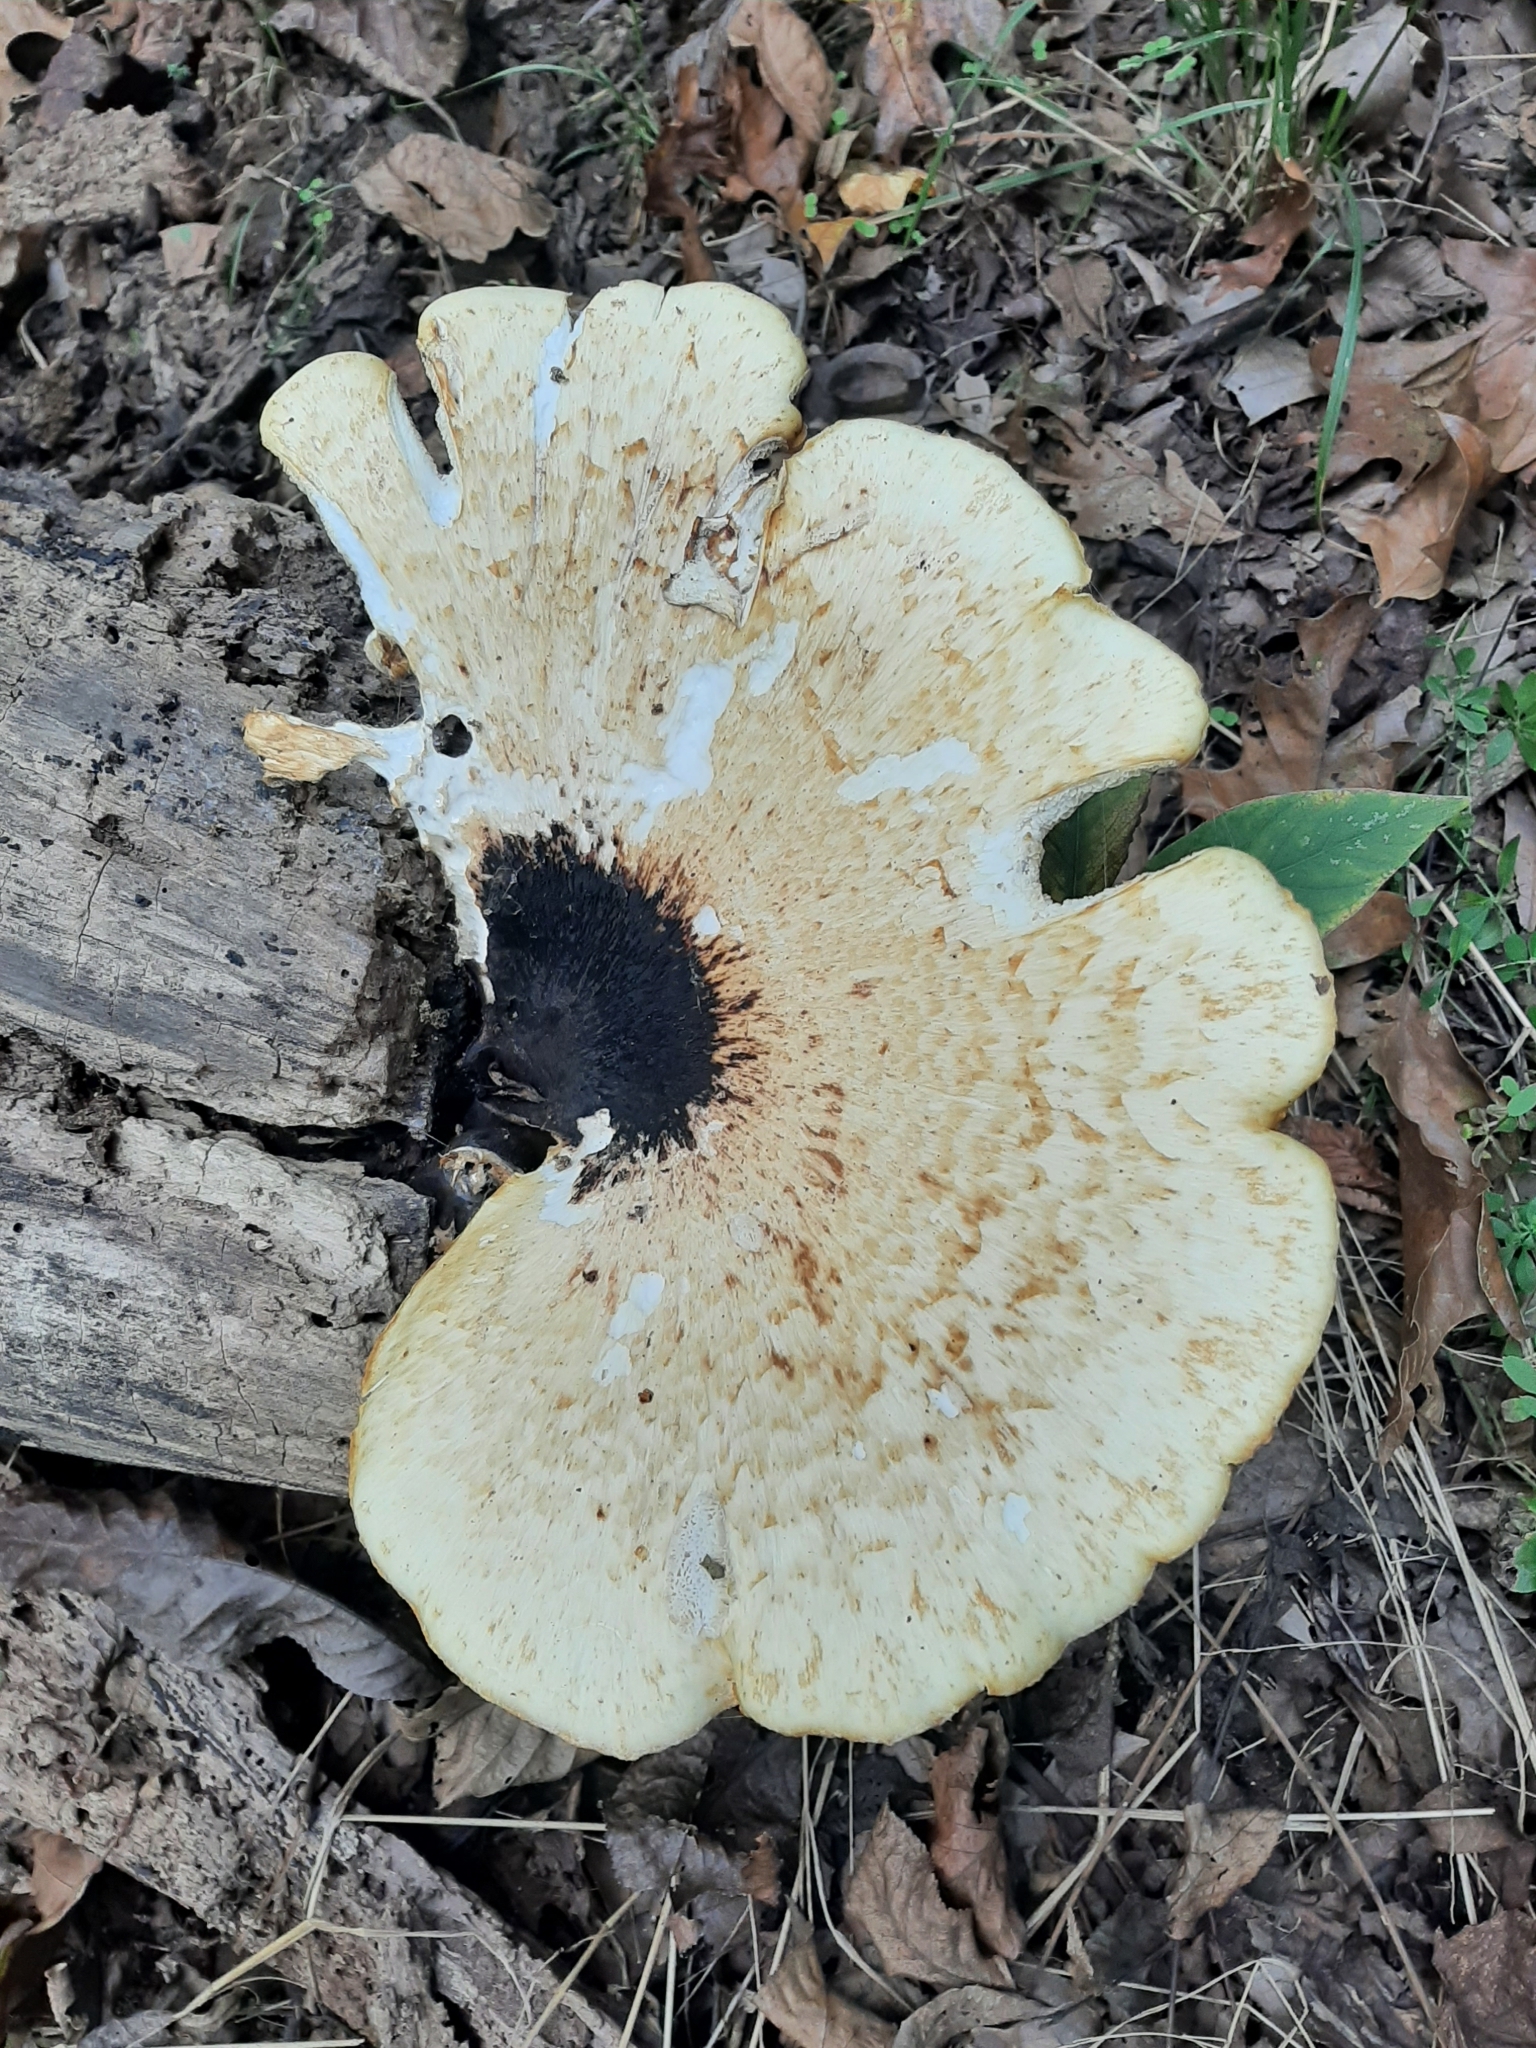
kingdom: Fungi
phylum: Basidiomycota
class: Agaricomycetes
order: Polyporales
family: Polyporaceae
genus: Cerioporus
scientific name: Cerioporus squamosus
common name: Dryad's saddle
